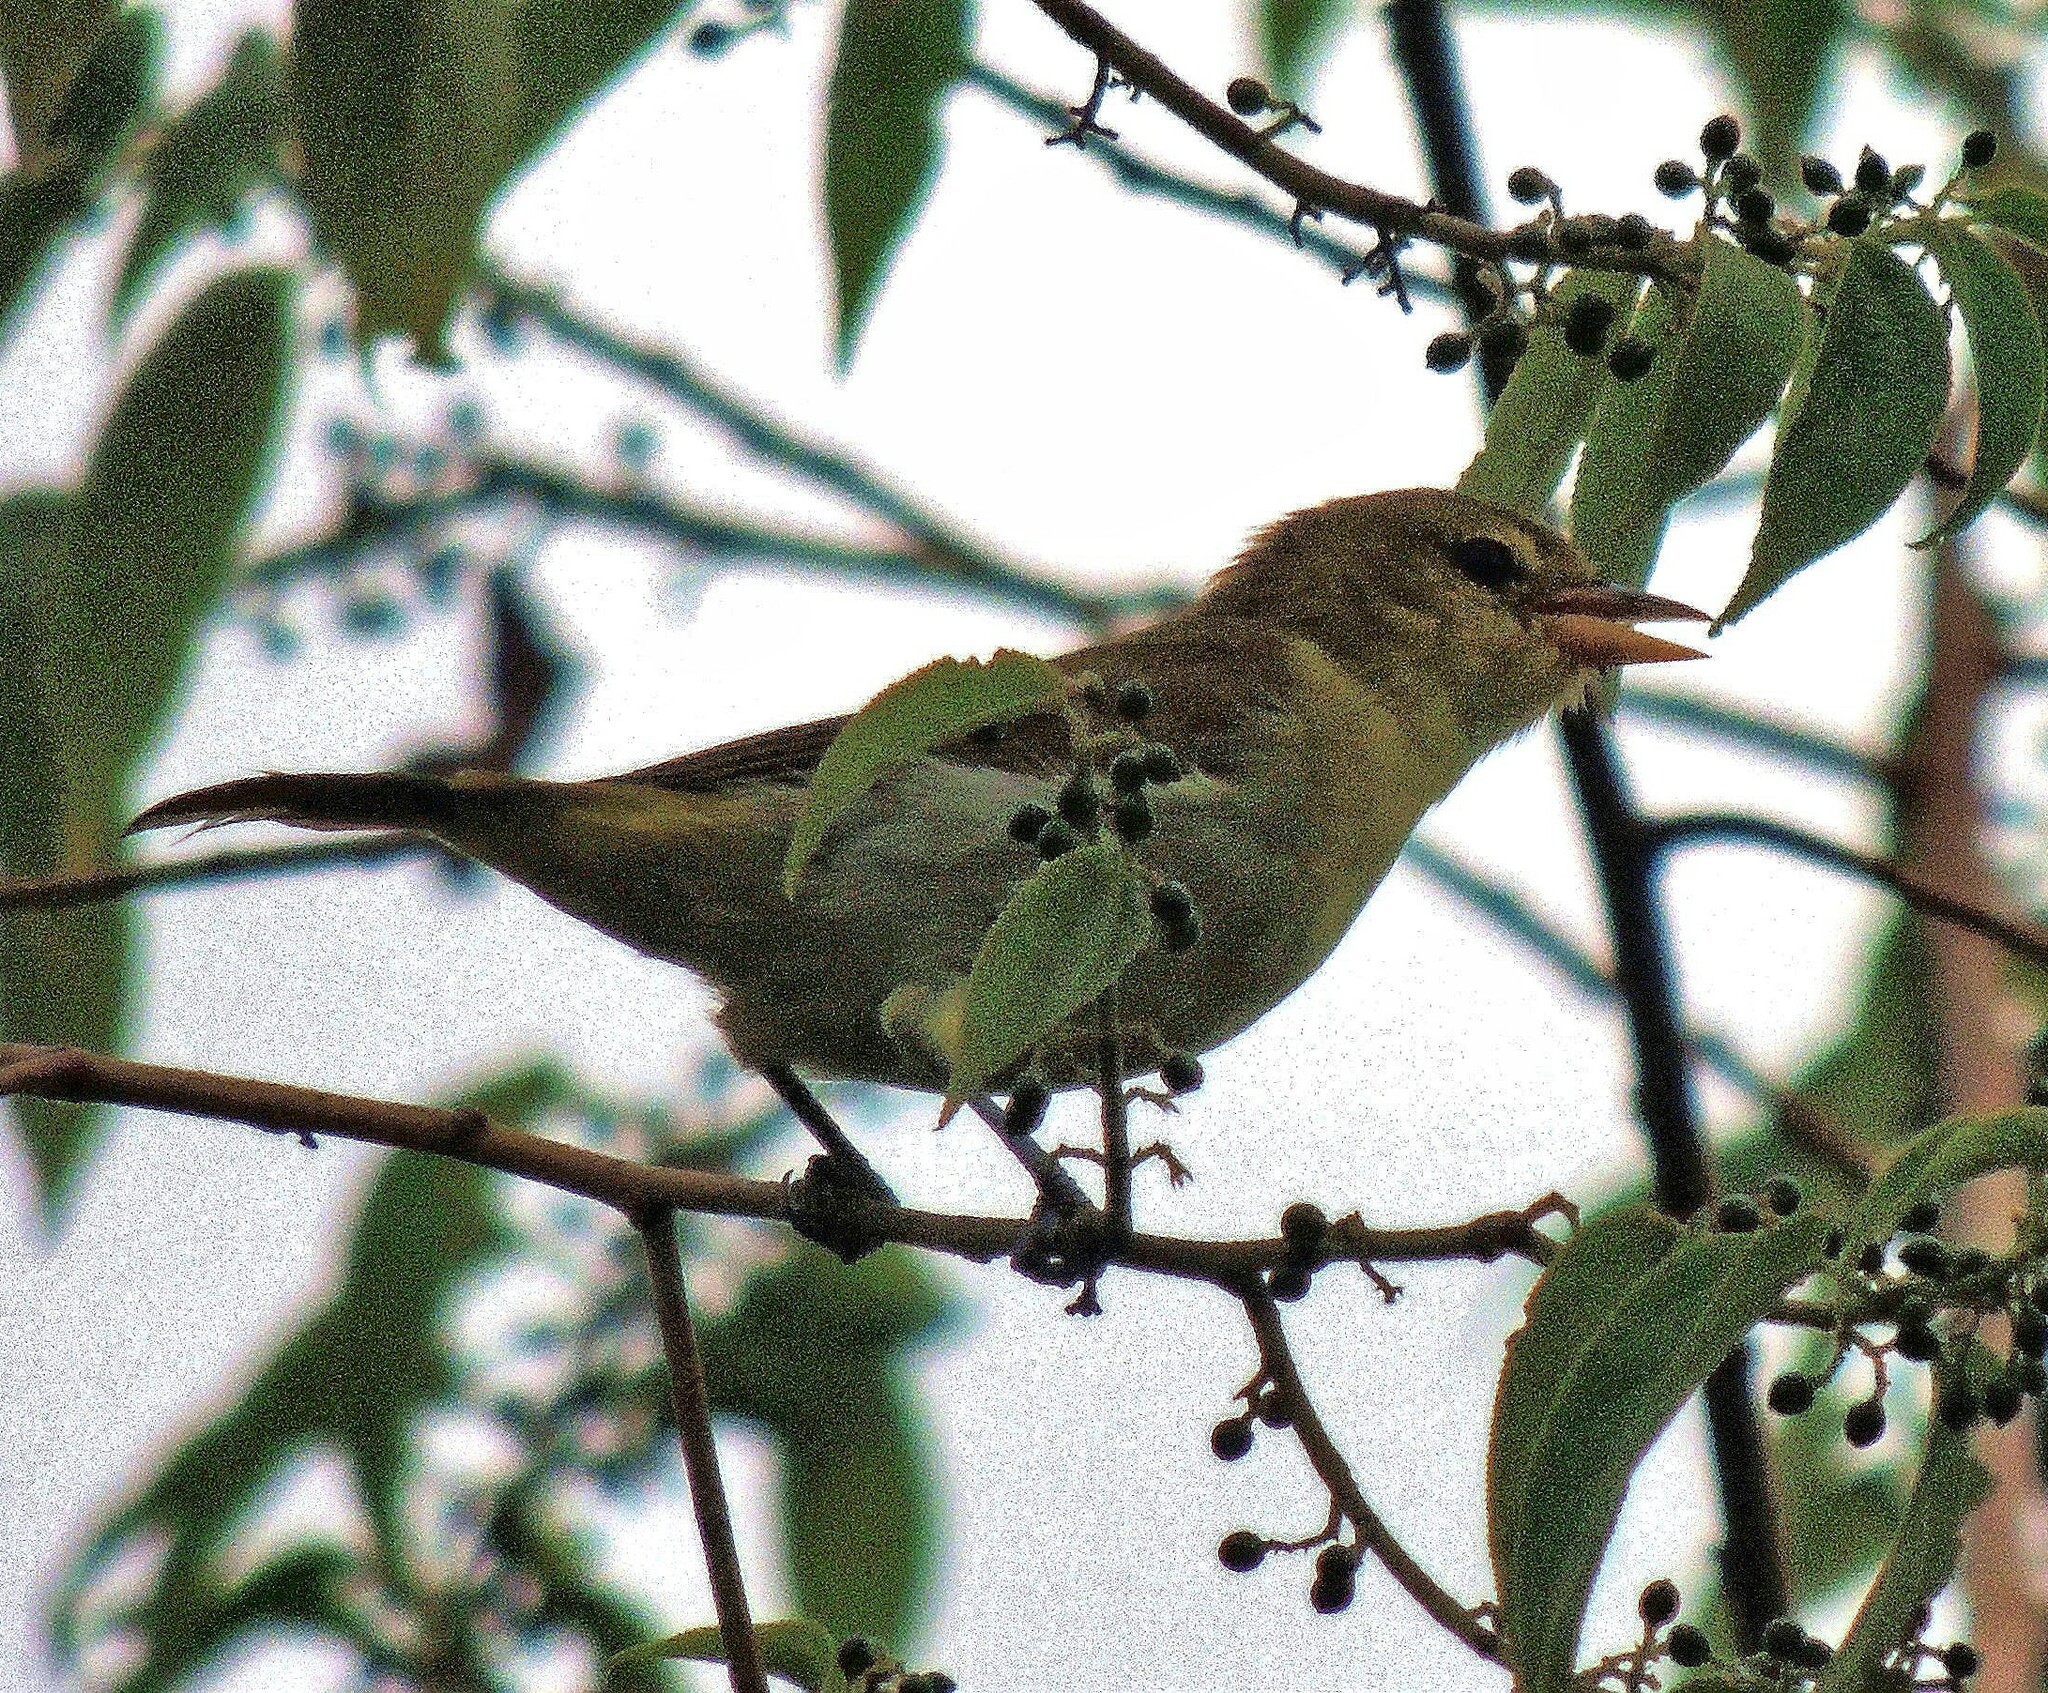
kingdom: Animalia
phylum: Chordata
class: Aves
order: Passeriformes
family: Thraupidae
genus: Hemithraupis
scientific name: Hemithraupis guira
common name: Guira tanager
